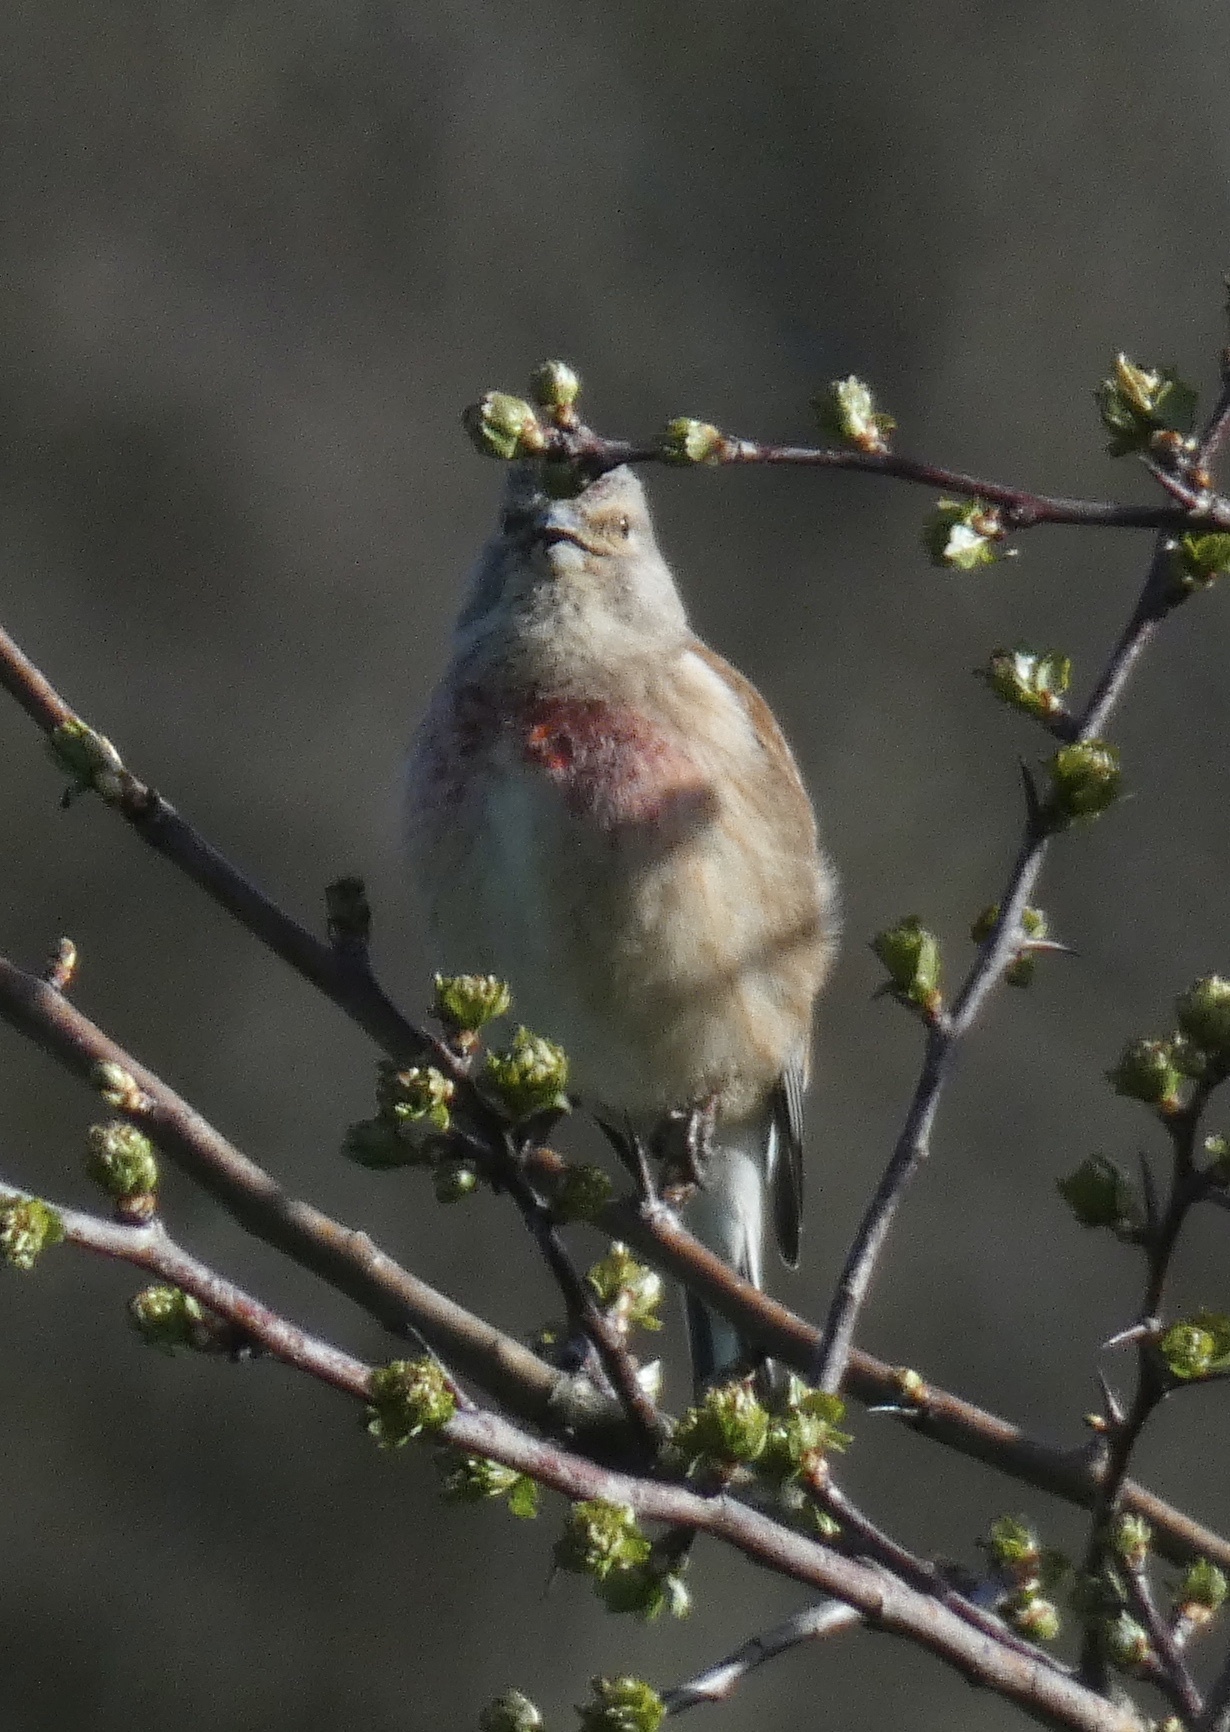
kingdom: Animalia
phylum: Chordata
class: Aves
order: Passeriformes
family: Fringillidae
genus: Linaria
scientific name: Linaria cannabina
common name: Common linnet
